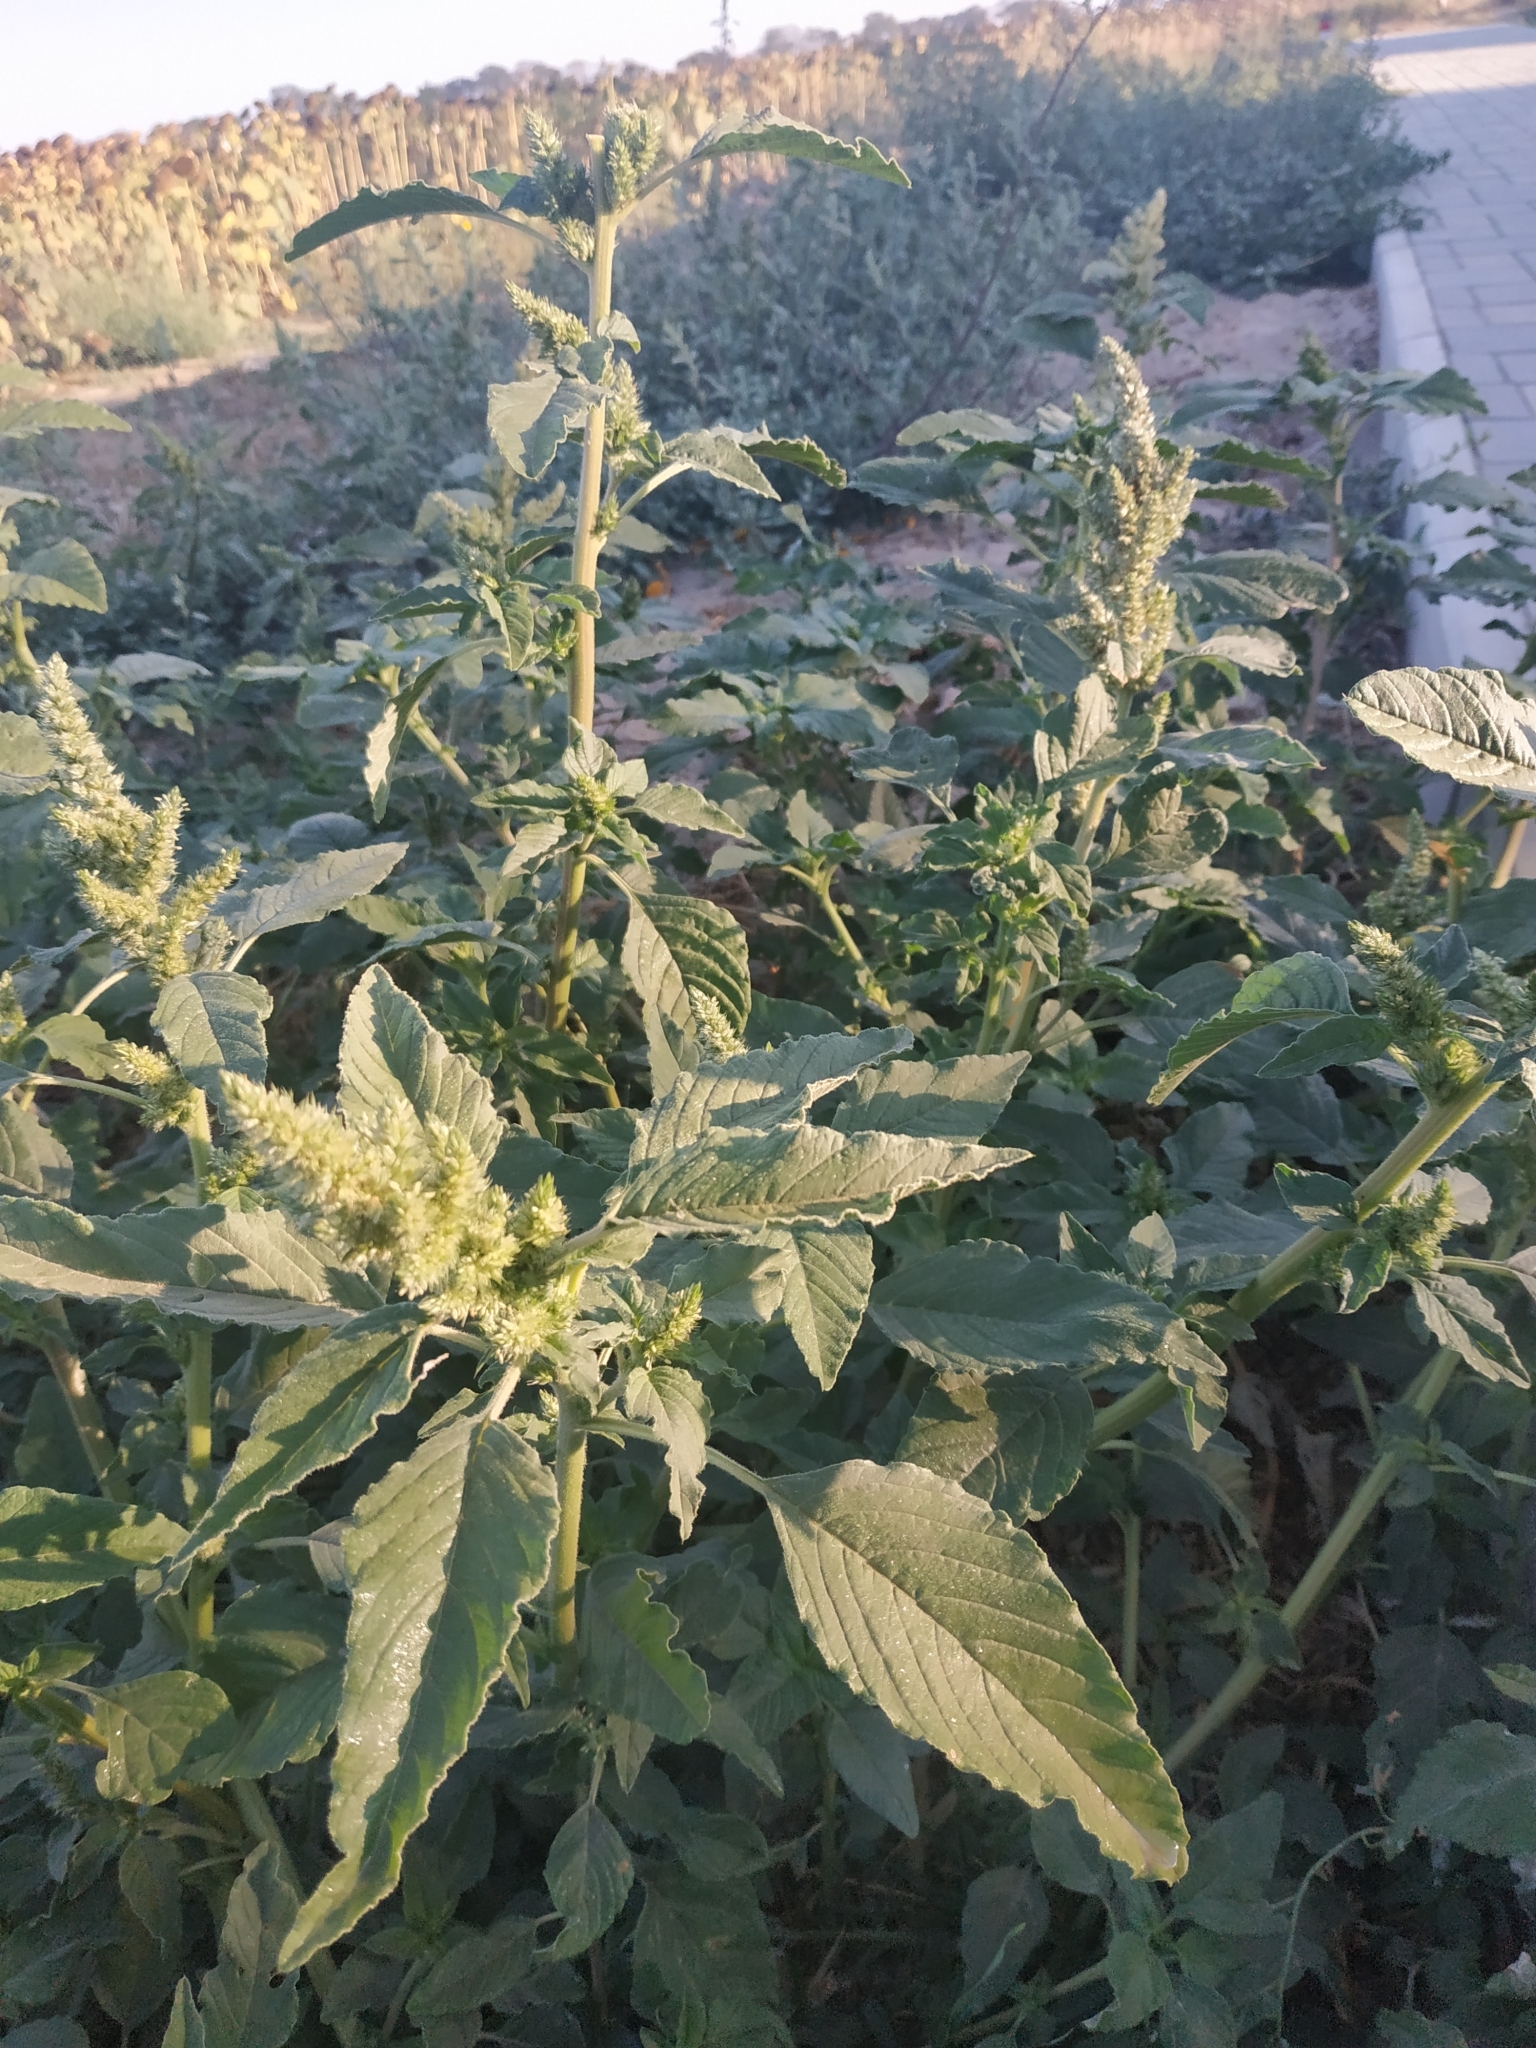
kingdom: Plantae
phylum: Tracheophyta
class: Magnoliopsida
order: Caryophyllales
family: Amaranthaceae
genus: Amaranthus
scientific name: Amaranthus retroflexus
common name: Redroot amaranth
